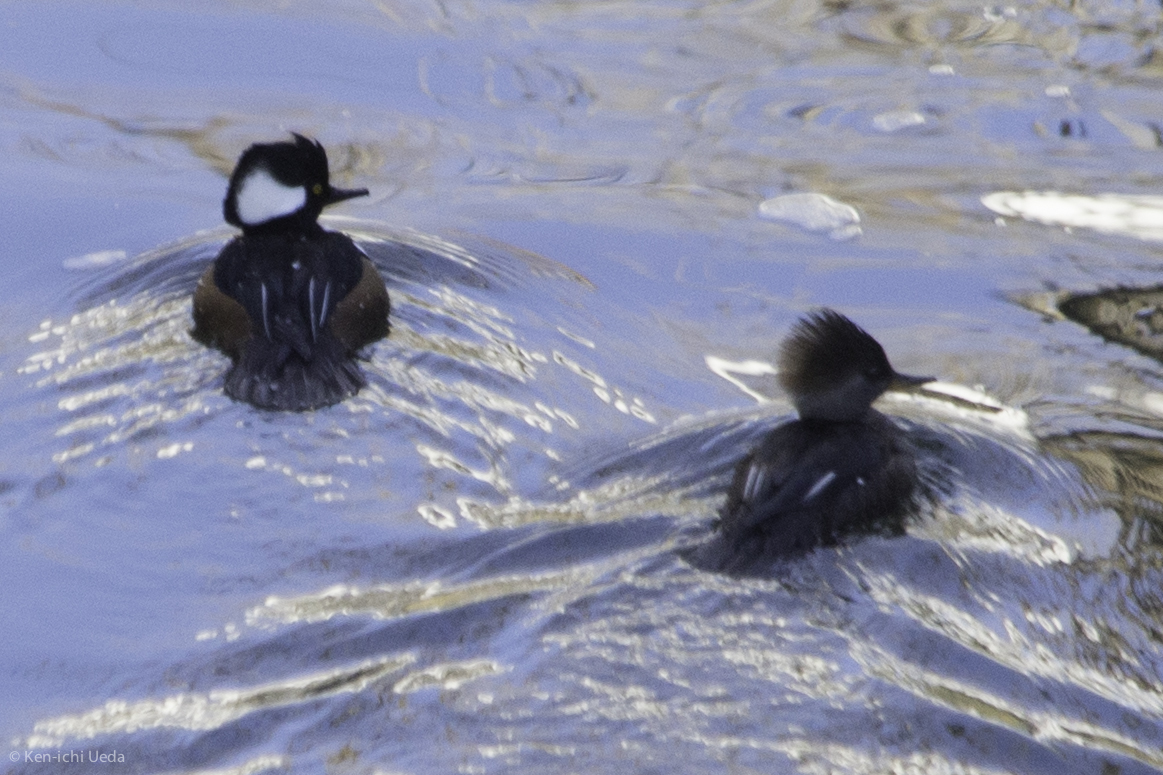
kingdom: Animalia
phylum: Chordata
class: Aves
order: Anseriformes
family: Anatidae
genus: Lophodytes
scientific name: Lophodytes cucullatus
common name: Hooded merganser
